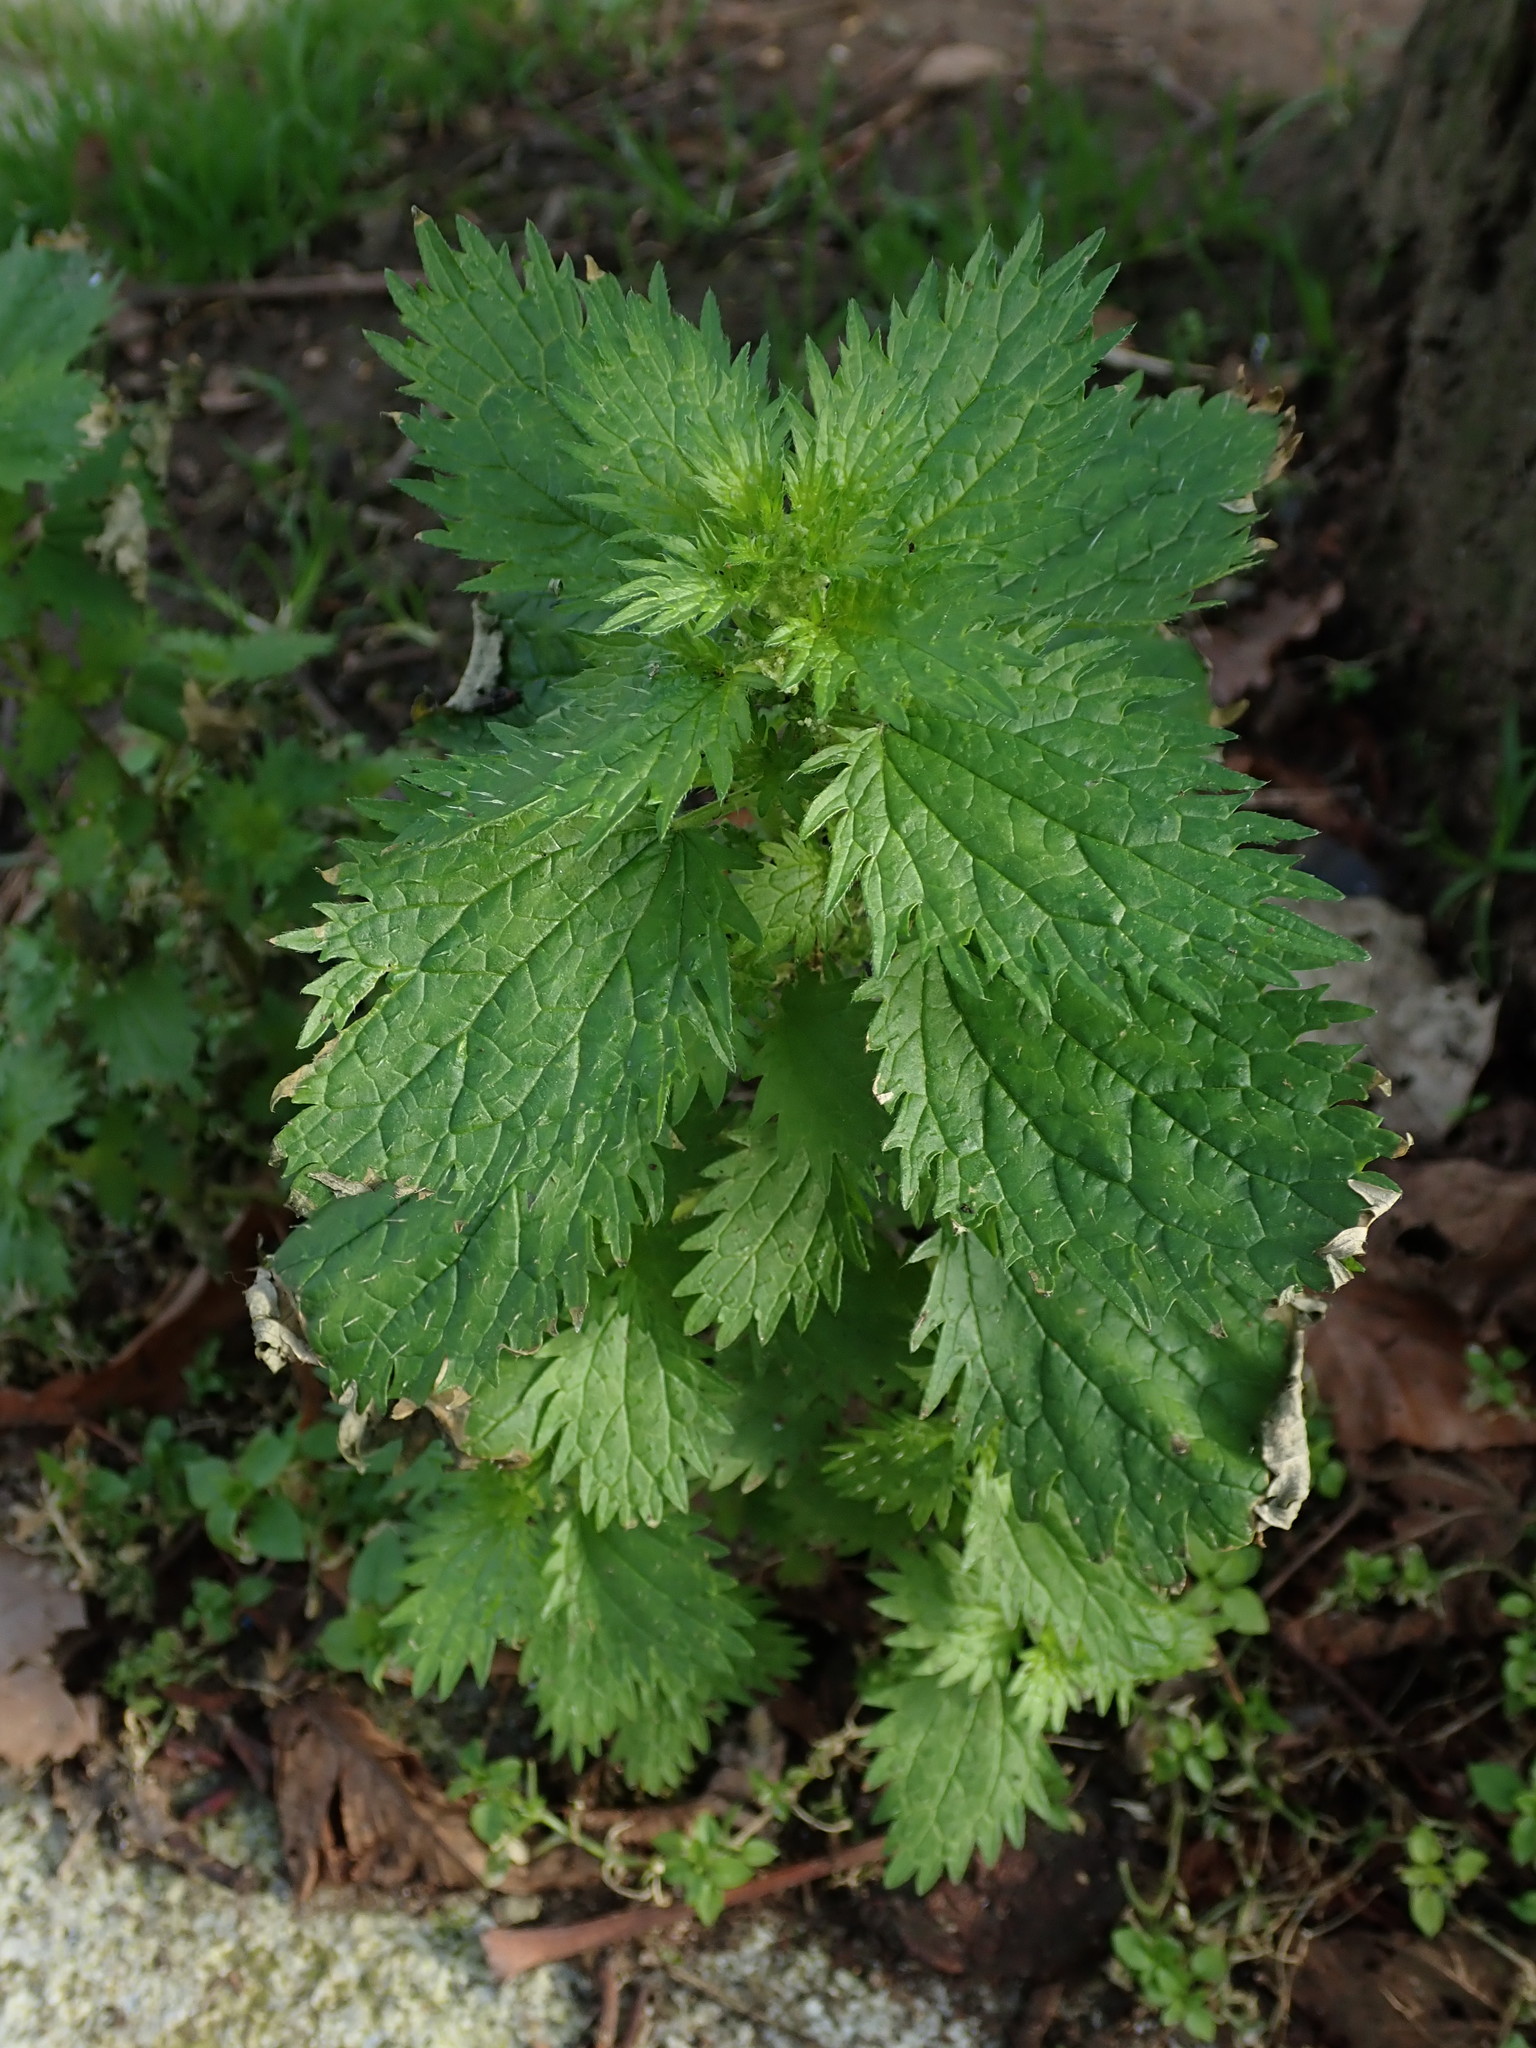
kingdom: Plantae
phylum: Tracheophyta
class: Magnoliopsida
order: Rosales
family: Urticaceae
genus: Urtica
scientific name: Urtica urens
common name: Dwarf nettle
